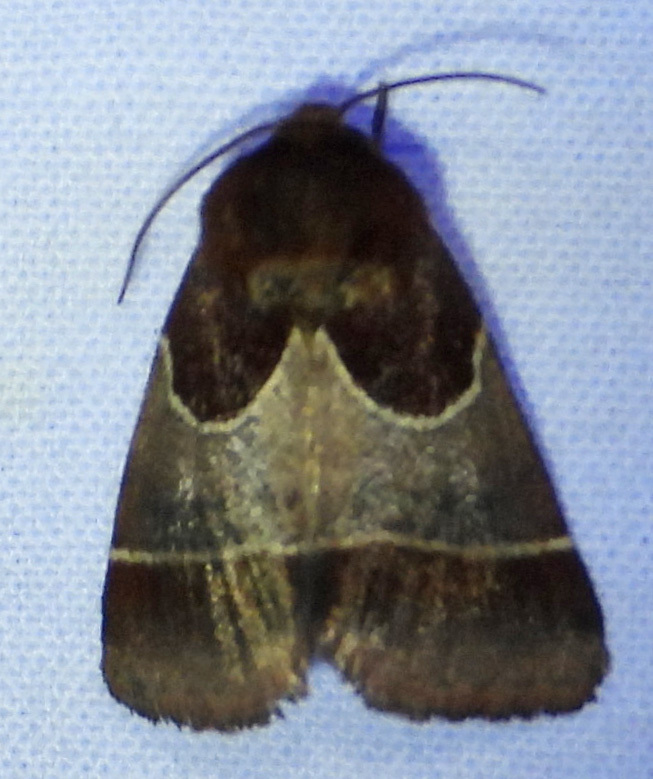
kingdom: Animalia
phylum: Arthropoda
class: Insecta
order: Lepidoptera
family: Noctuidae
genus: Schinia
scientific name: Schinia arcigera
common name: Arcigera flower moth
